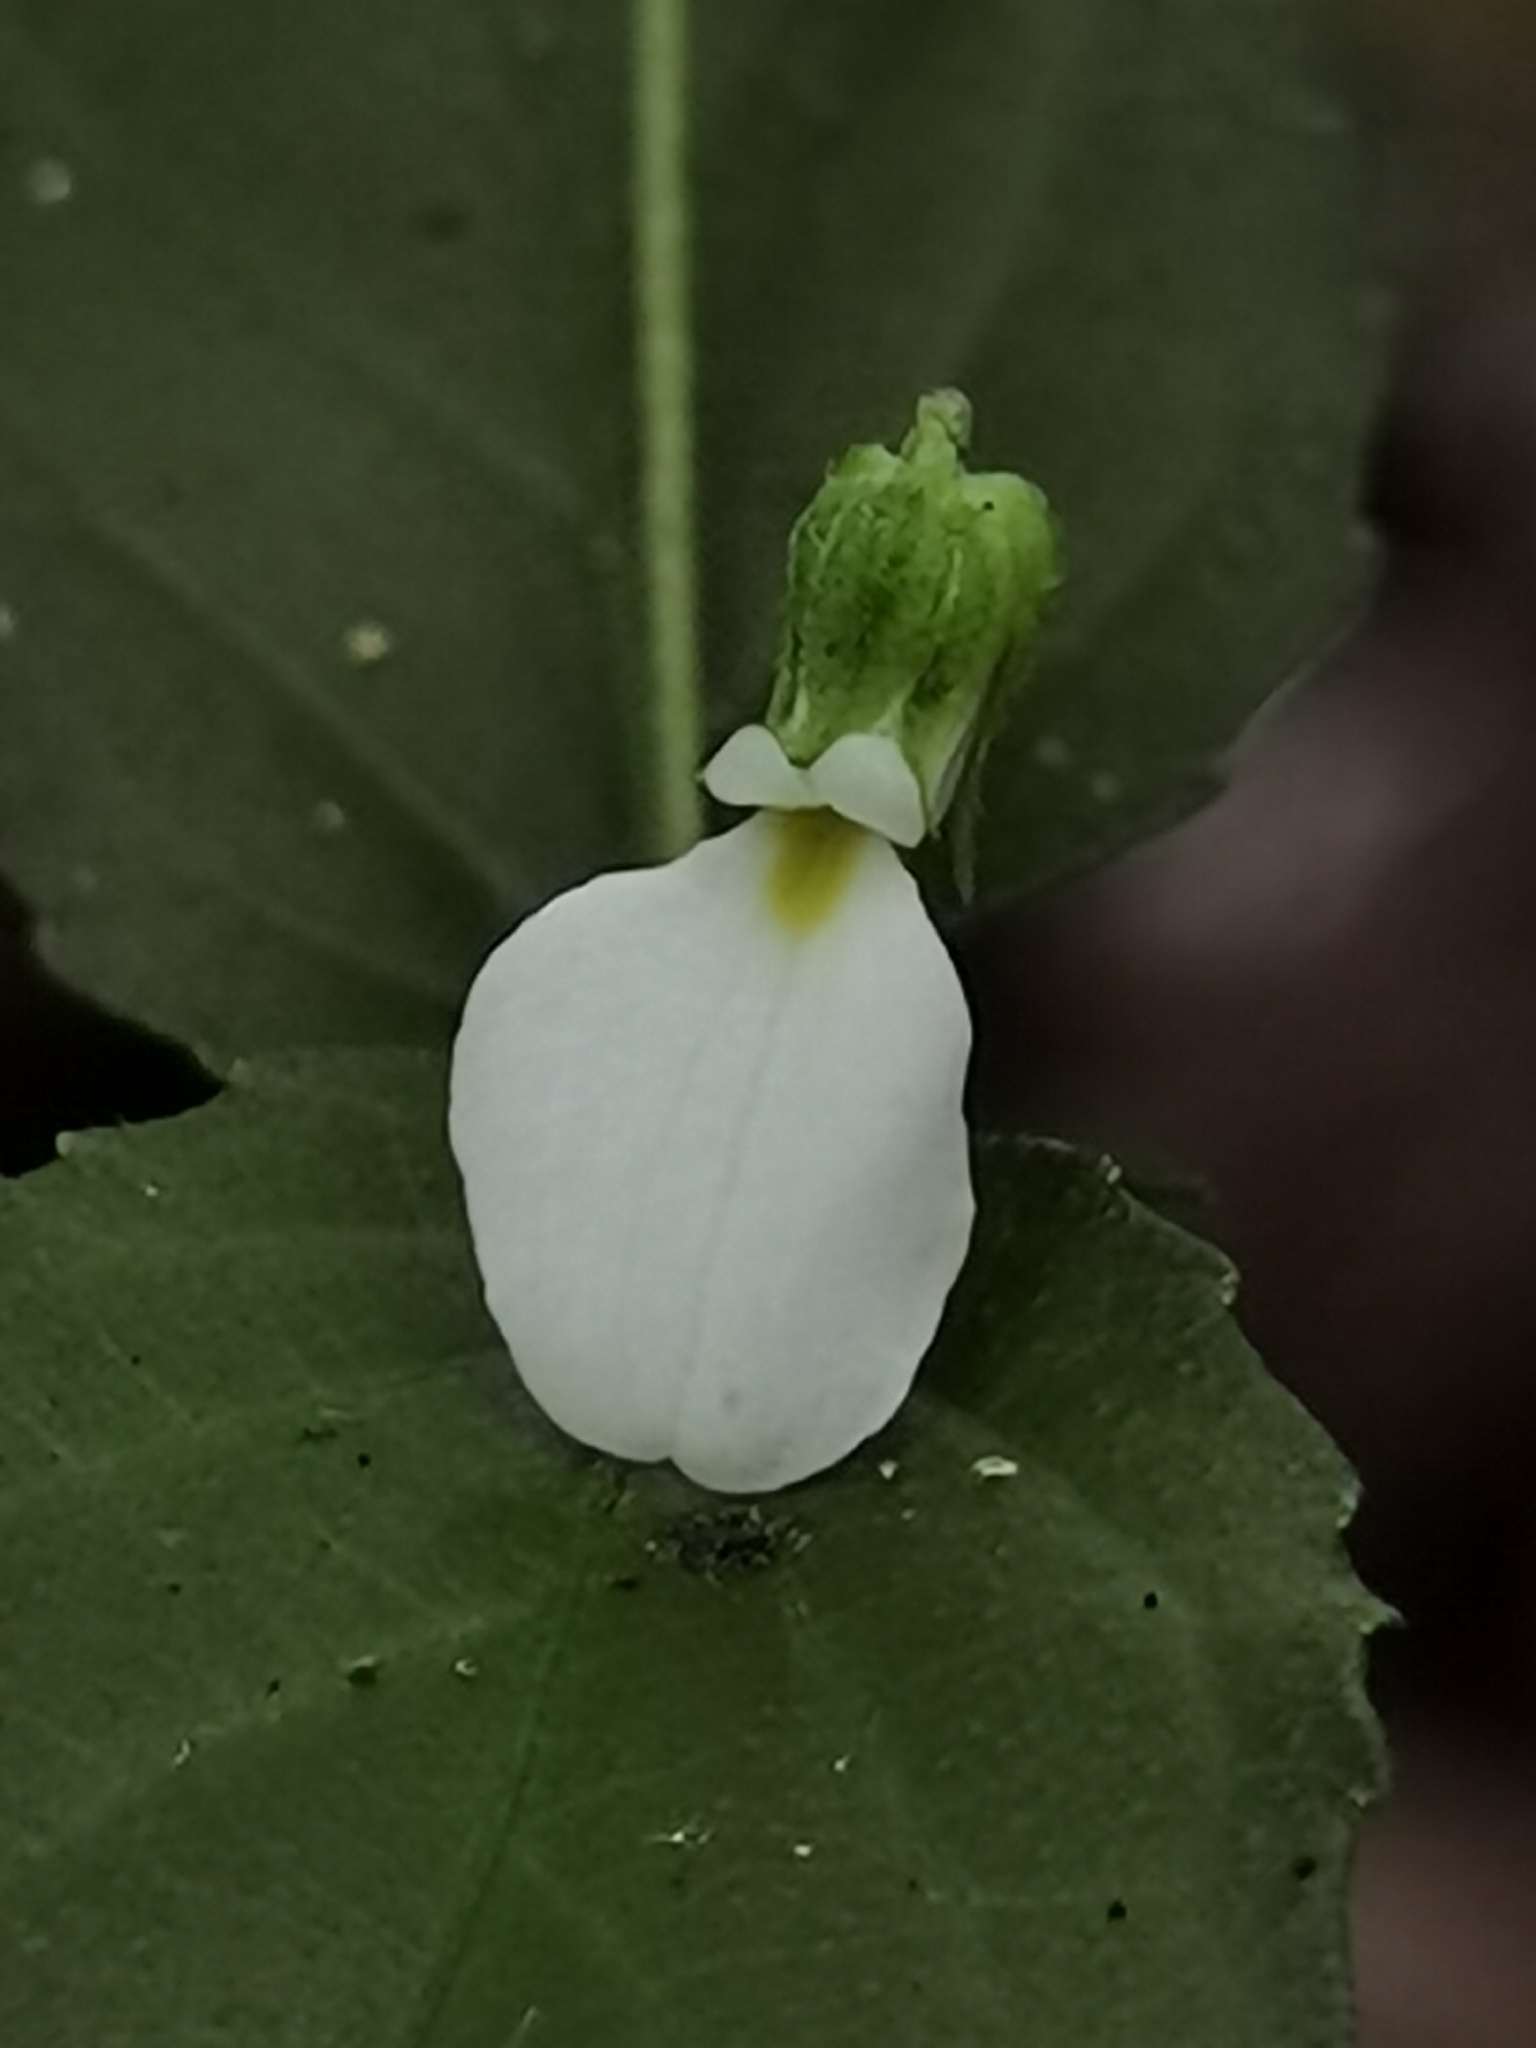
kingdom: Plantae
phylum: Tracheophyta
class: Magnoliopsida
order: Malpighiales
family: Violaceae
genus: Hybanthus
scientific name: Hybanthus galeottii
